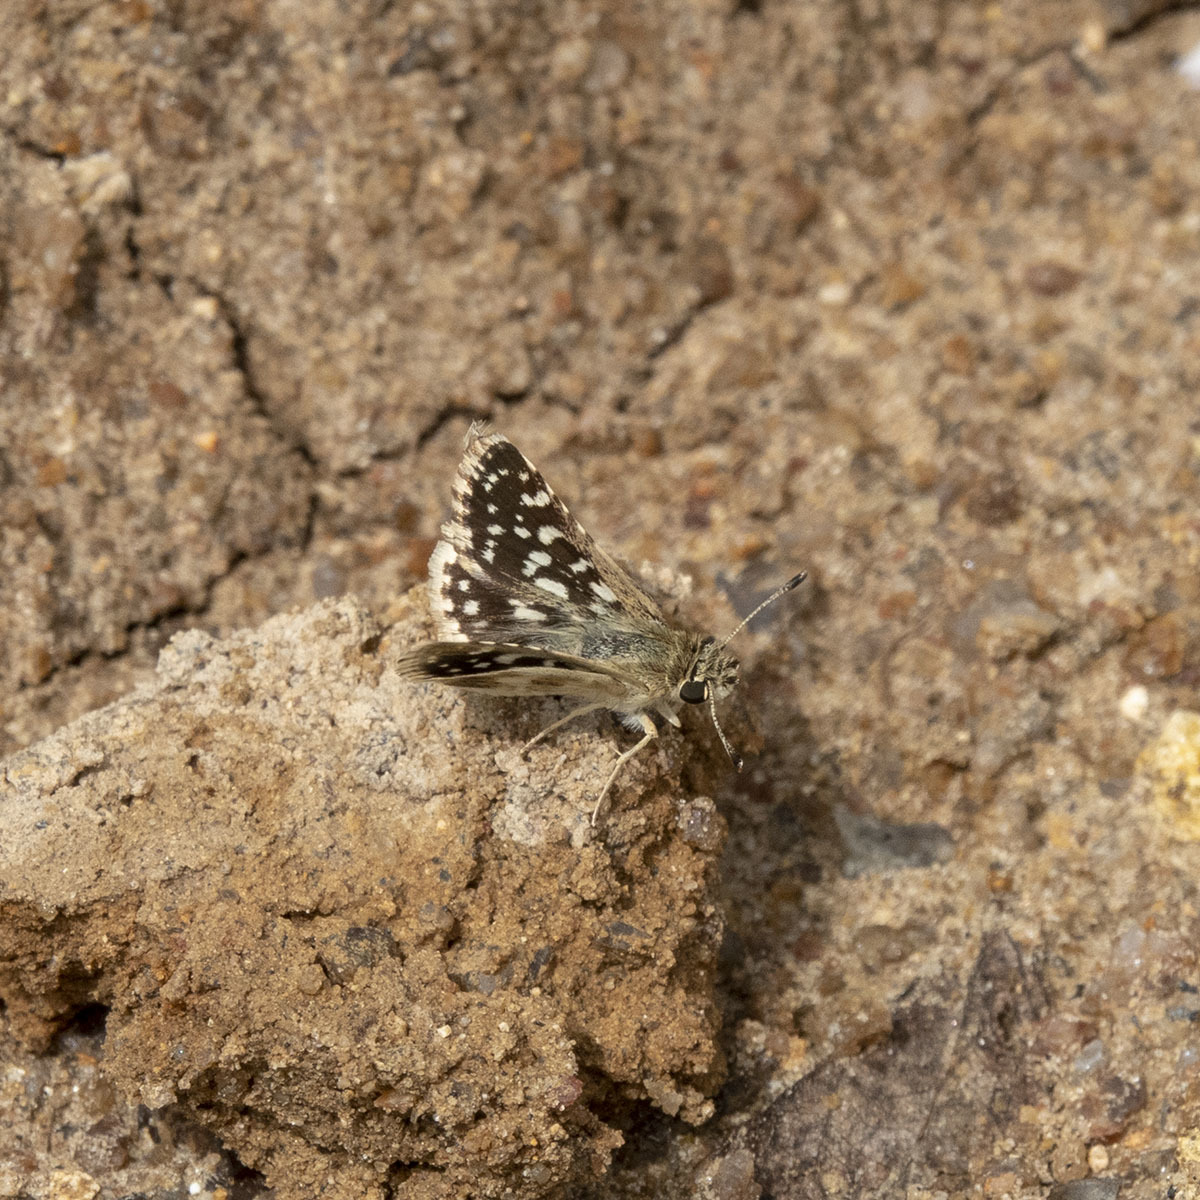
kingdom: Animalia
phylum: Arthropoda
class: Insecta
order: Lepidoptera
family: Hesperiidae
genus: Spialia
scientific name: Spialia galba
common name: Indian skipper
